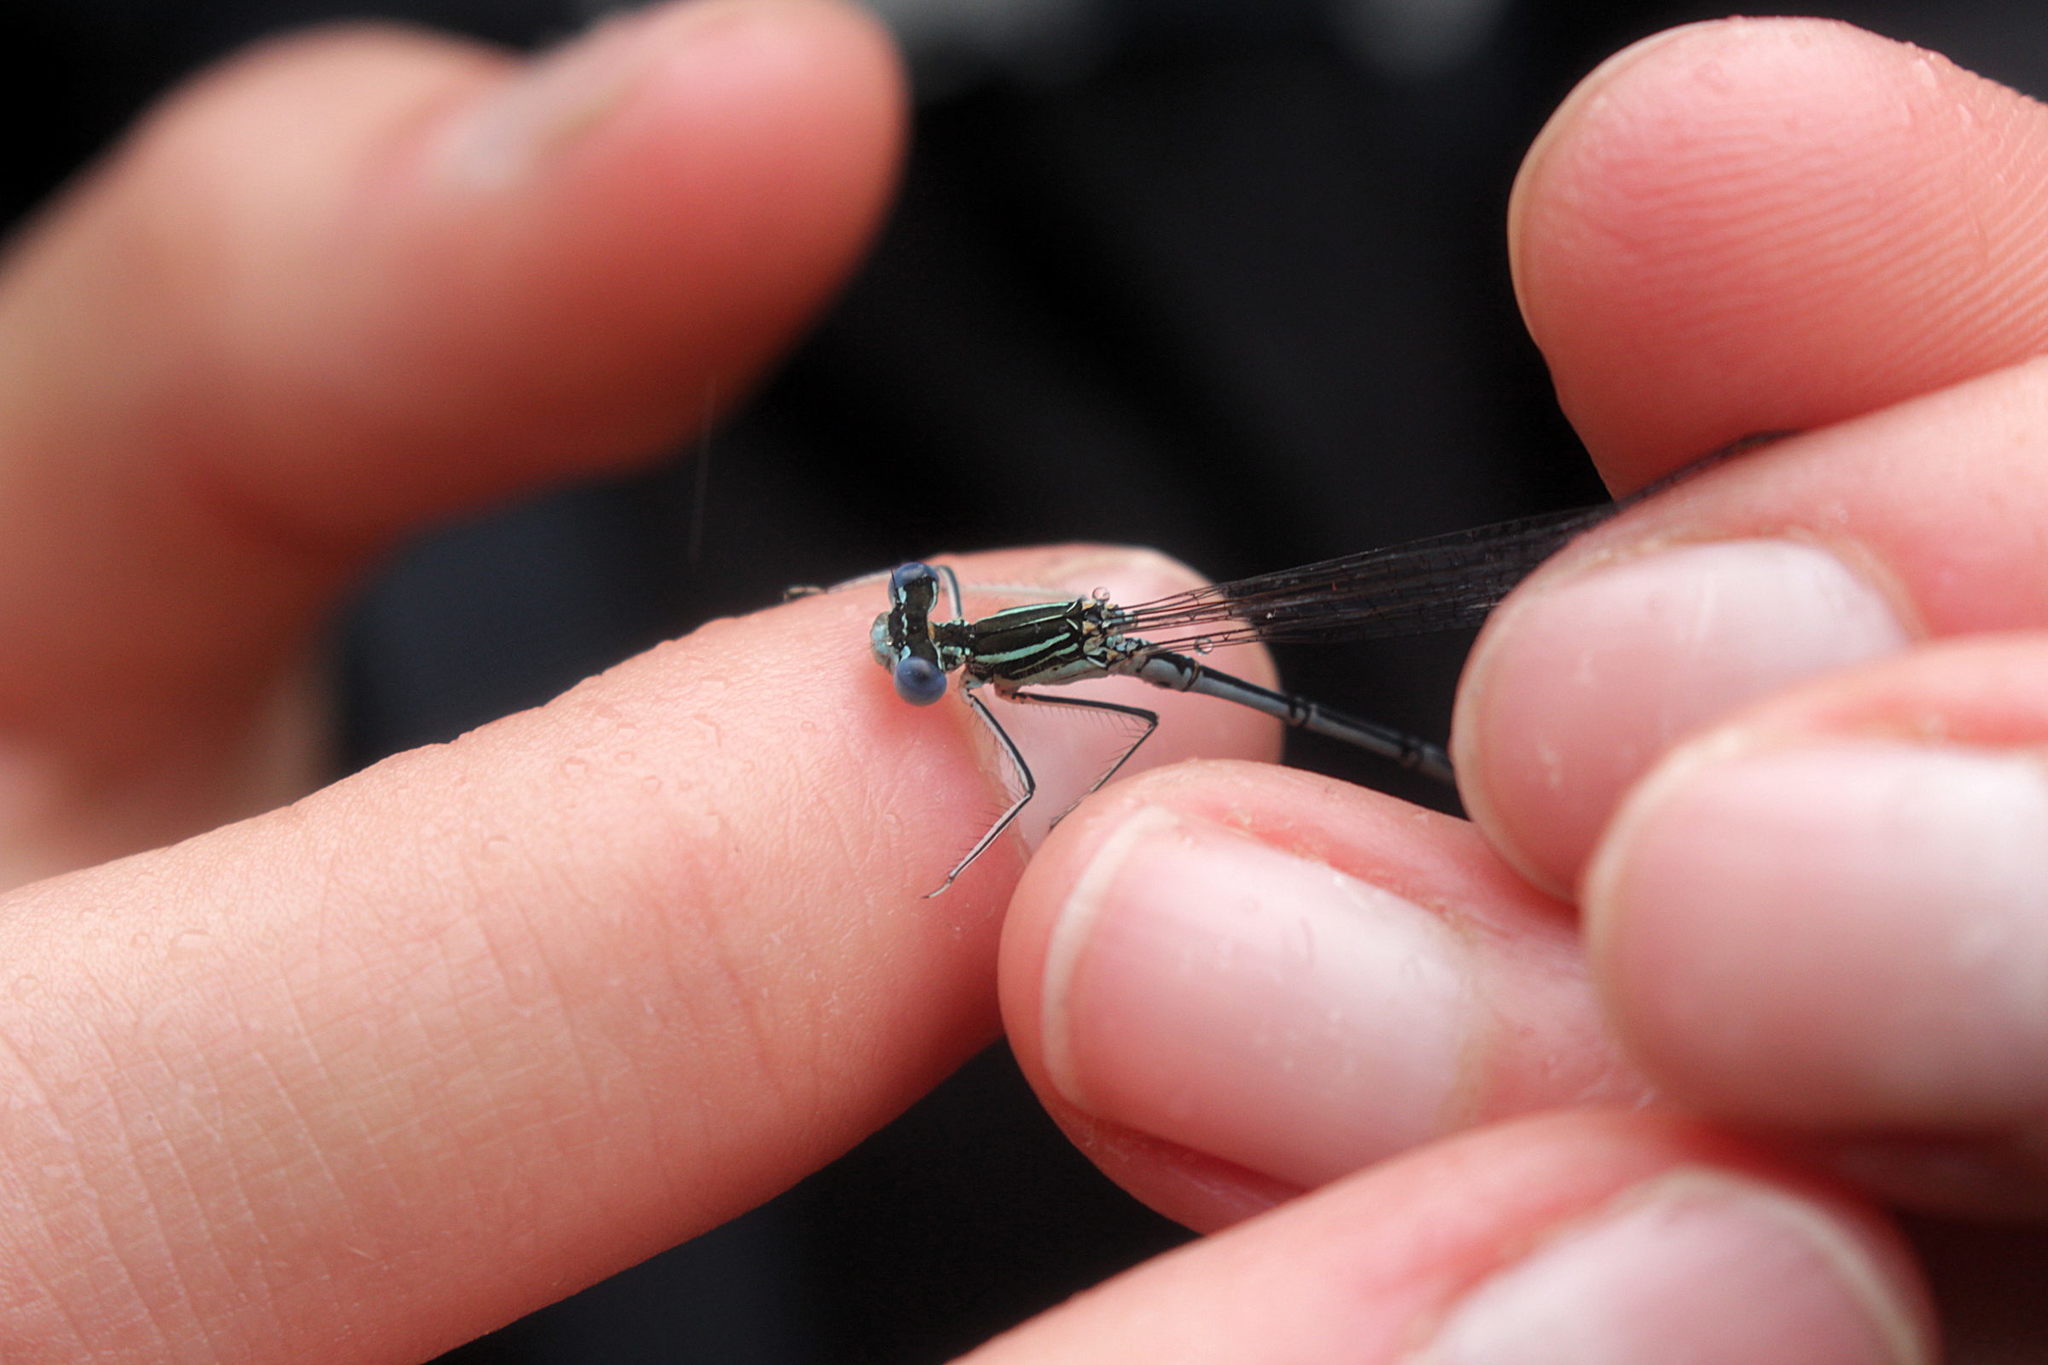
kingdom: Animalia
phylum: Arthropoda
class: Insecta
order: Odonata
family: Platycnemididae
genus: Platycnemis
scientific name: Platycnemis pennipes
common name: White-legged damselfly
